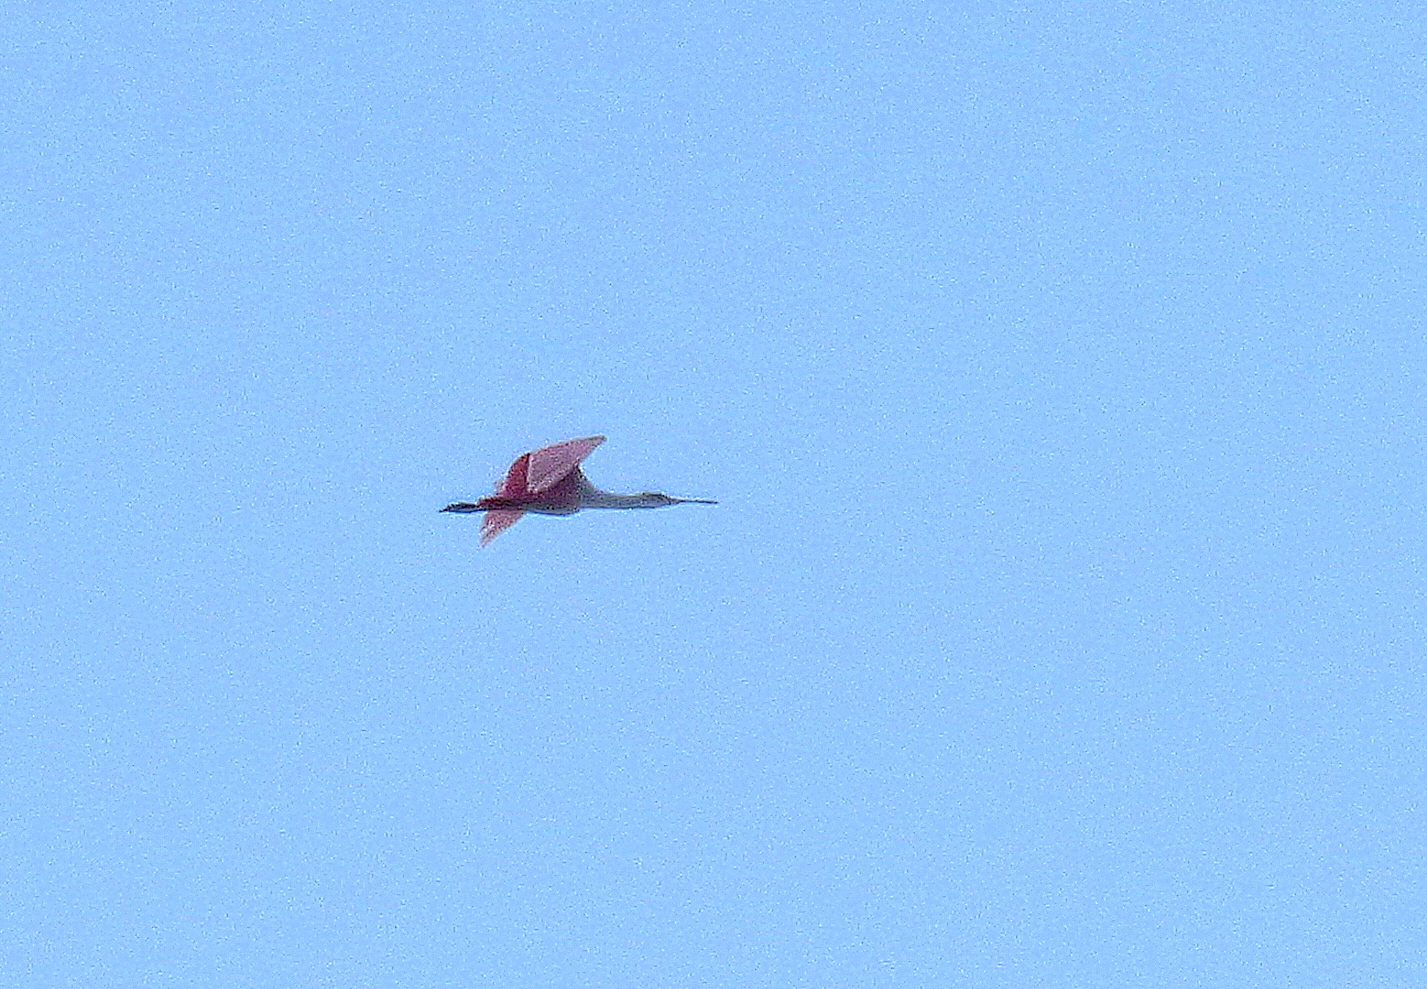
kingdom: Animalia
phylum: Chordata
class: Aves
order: Pelecaniformes
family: Threskiornithidae
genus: Platalea
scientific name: Platalea ajaja
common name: Roseate spoonbill
